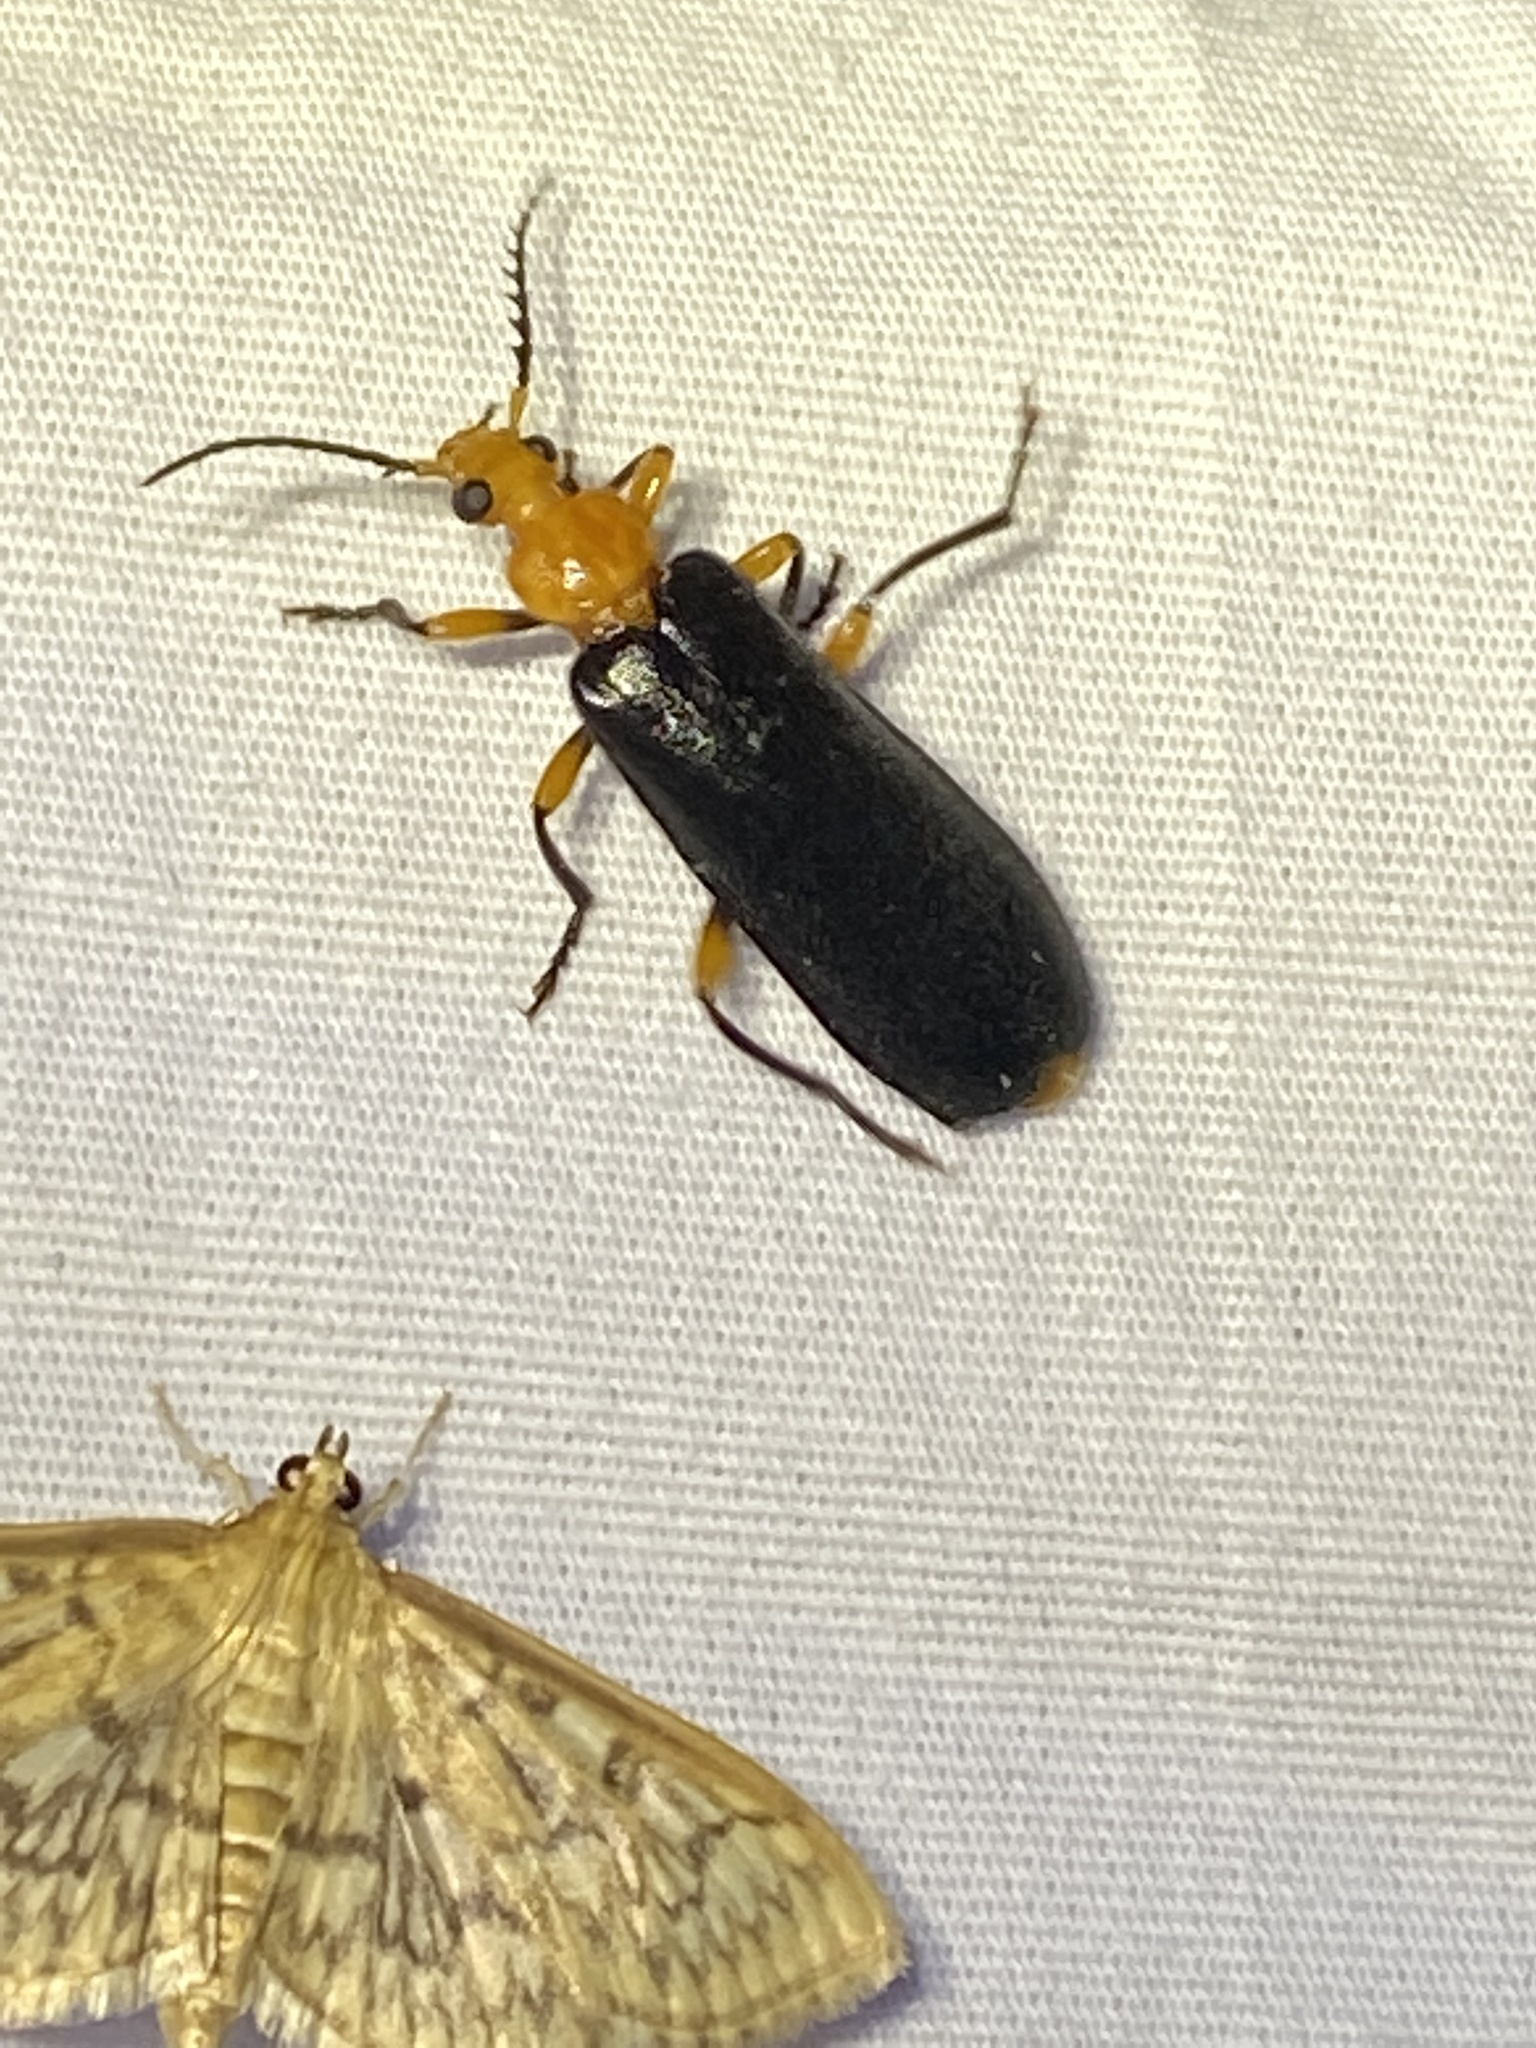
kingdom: Animalia
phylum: Arthropoda
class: Insecta
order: Coleoptera
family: Pyrochroidae
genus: Neopyrochroa
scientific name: Neopyrochroa femoralis
